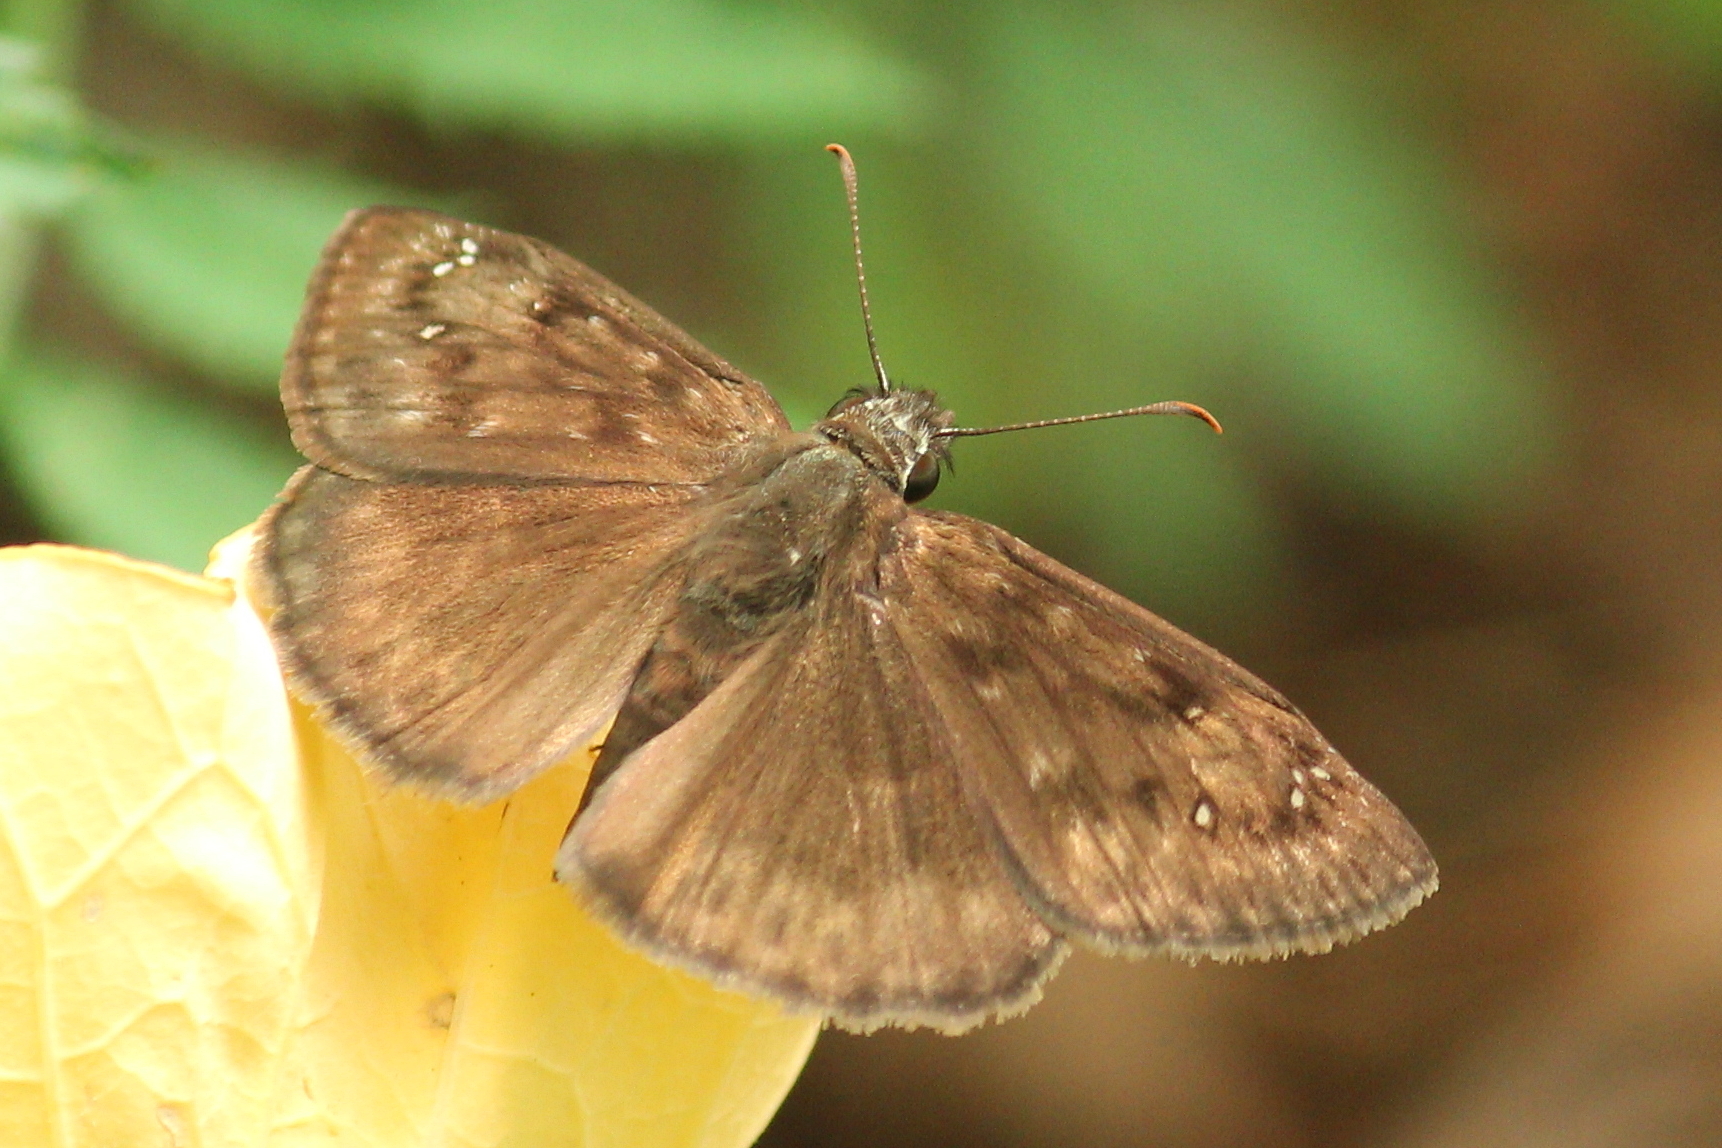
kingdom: Animalia
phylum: Arthropoda
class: Insecta
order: Lepidoptera
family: Hesperiidae
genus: Erynnis
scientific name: Erynnis horatius
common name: Horace's duskywing
